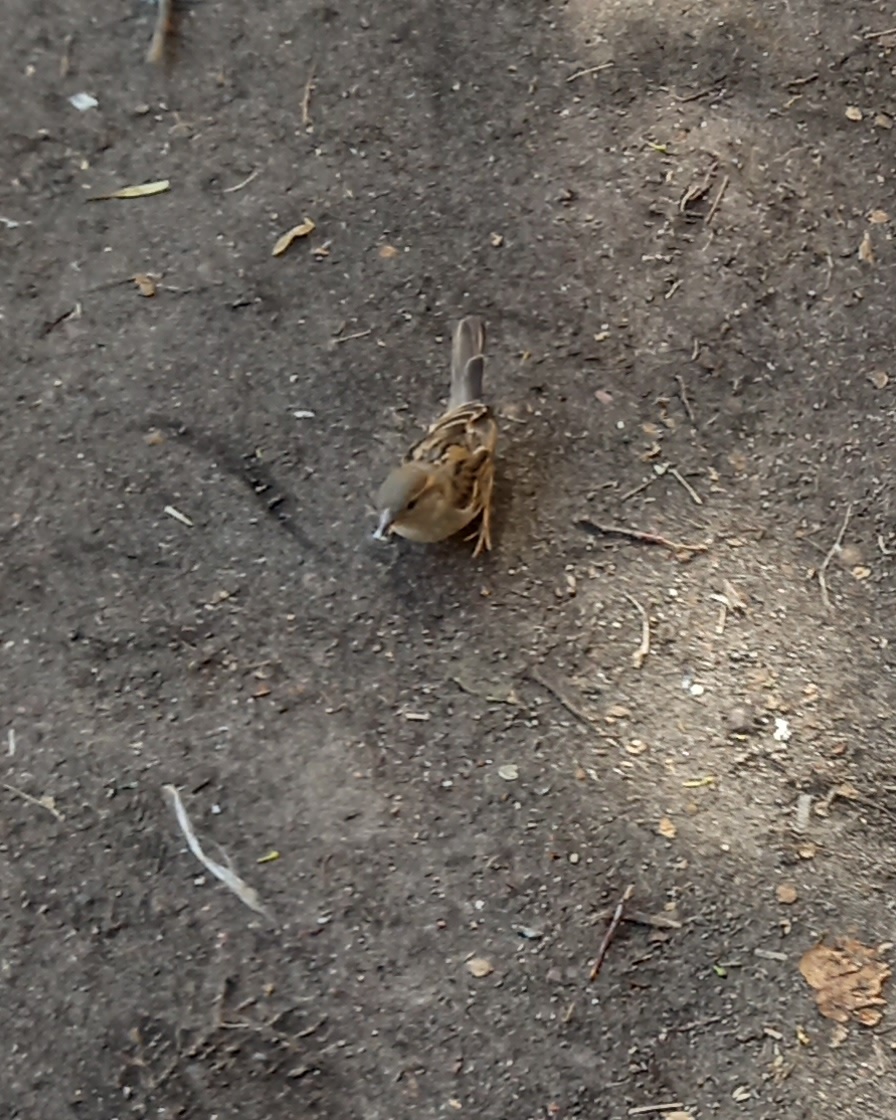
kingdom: Animalia
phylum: Chordata
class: Aves
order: Passeriformes
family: Passeridae
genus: Passer
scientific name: Passer domesticus
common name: House sparrow
